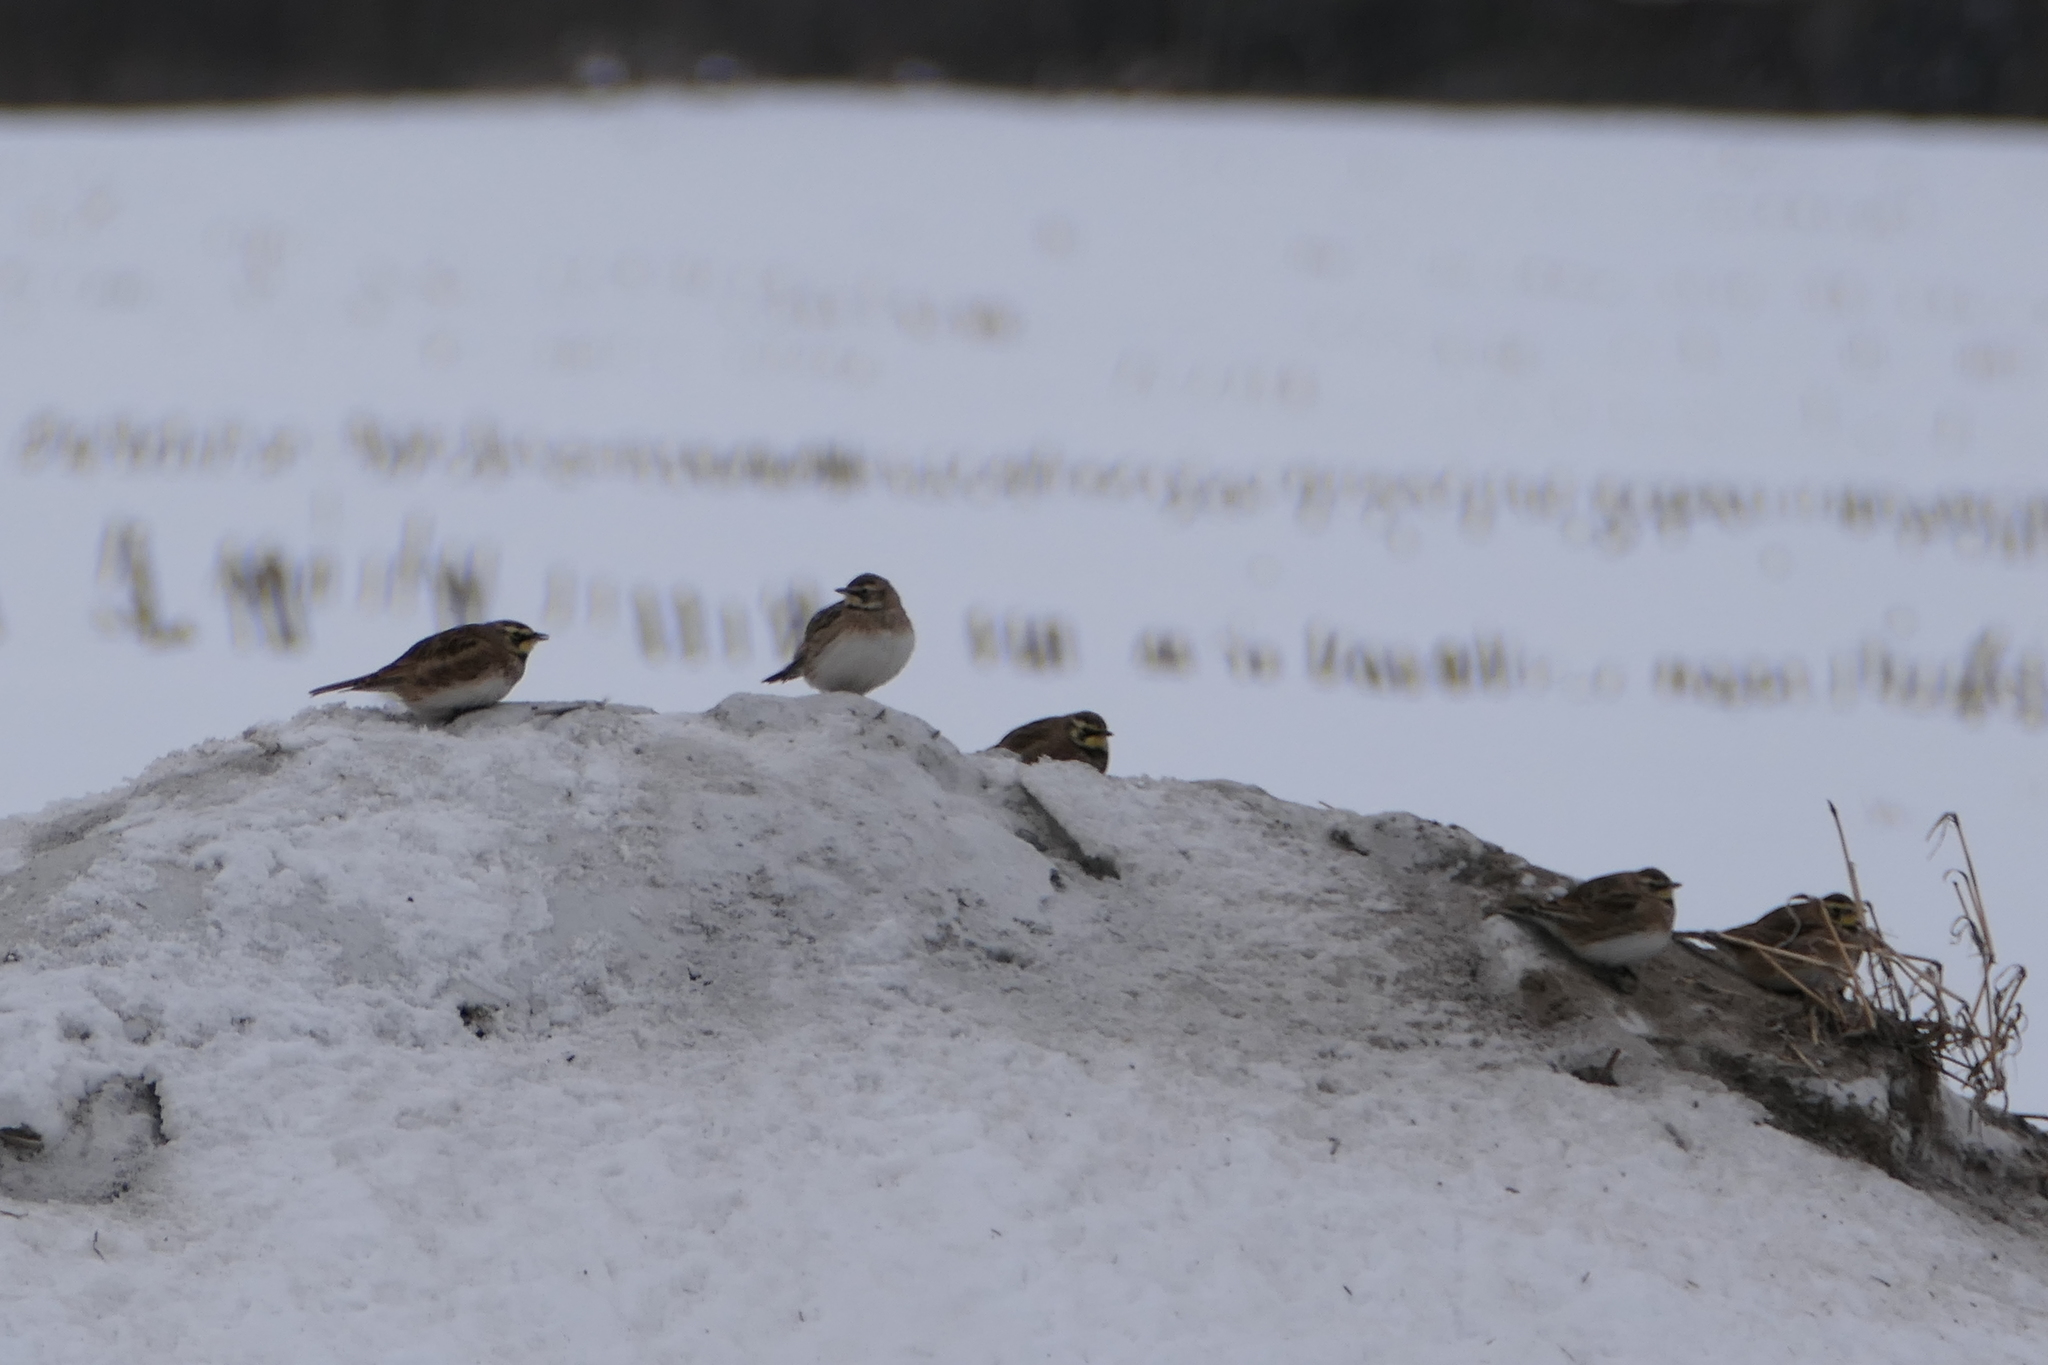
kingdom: Animalia
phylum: Chordata
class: Aves
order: Passeriformes
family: Alaudidae
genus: Eremophila
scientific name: Eremophila alpestris
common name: Horned lark
